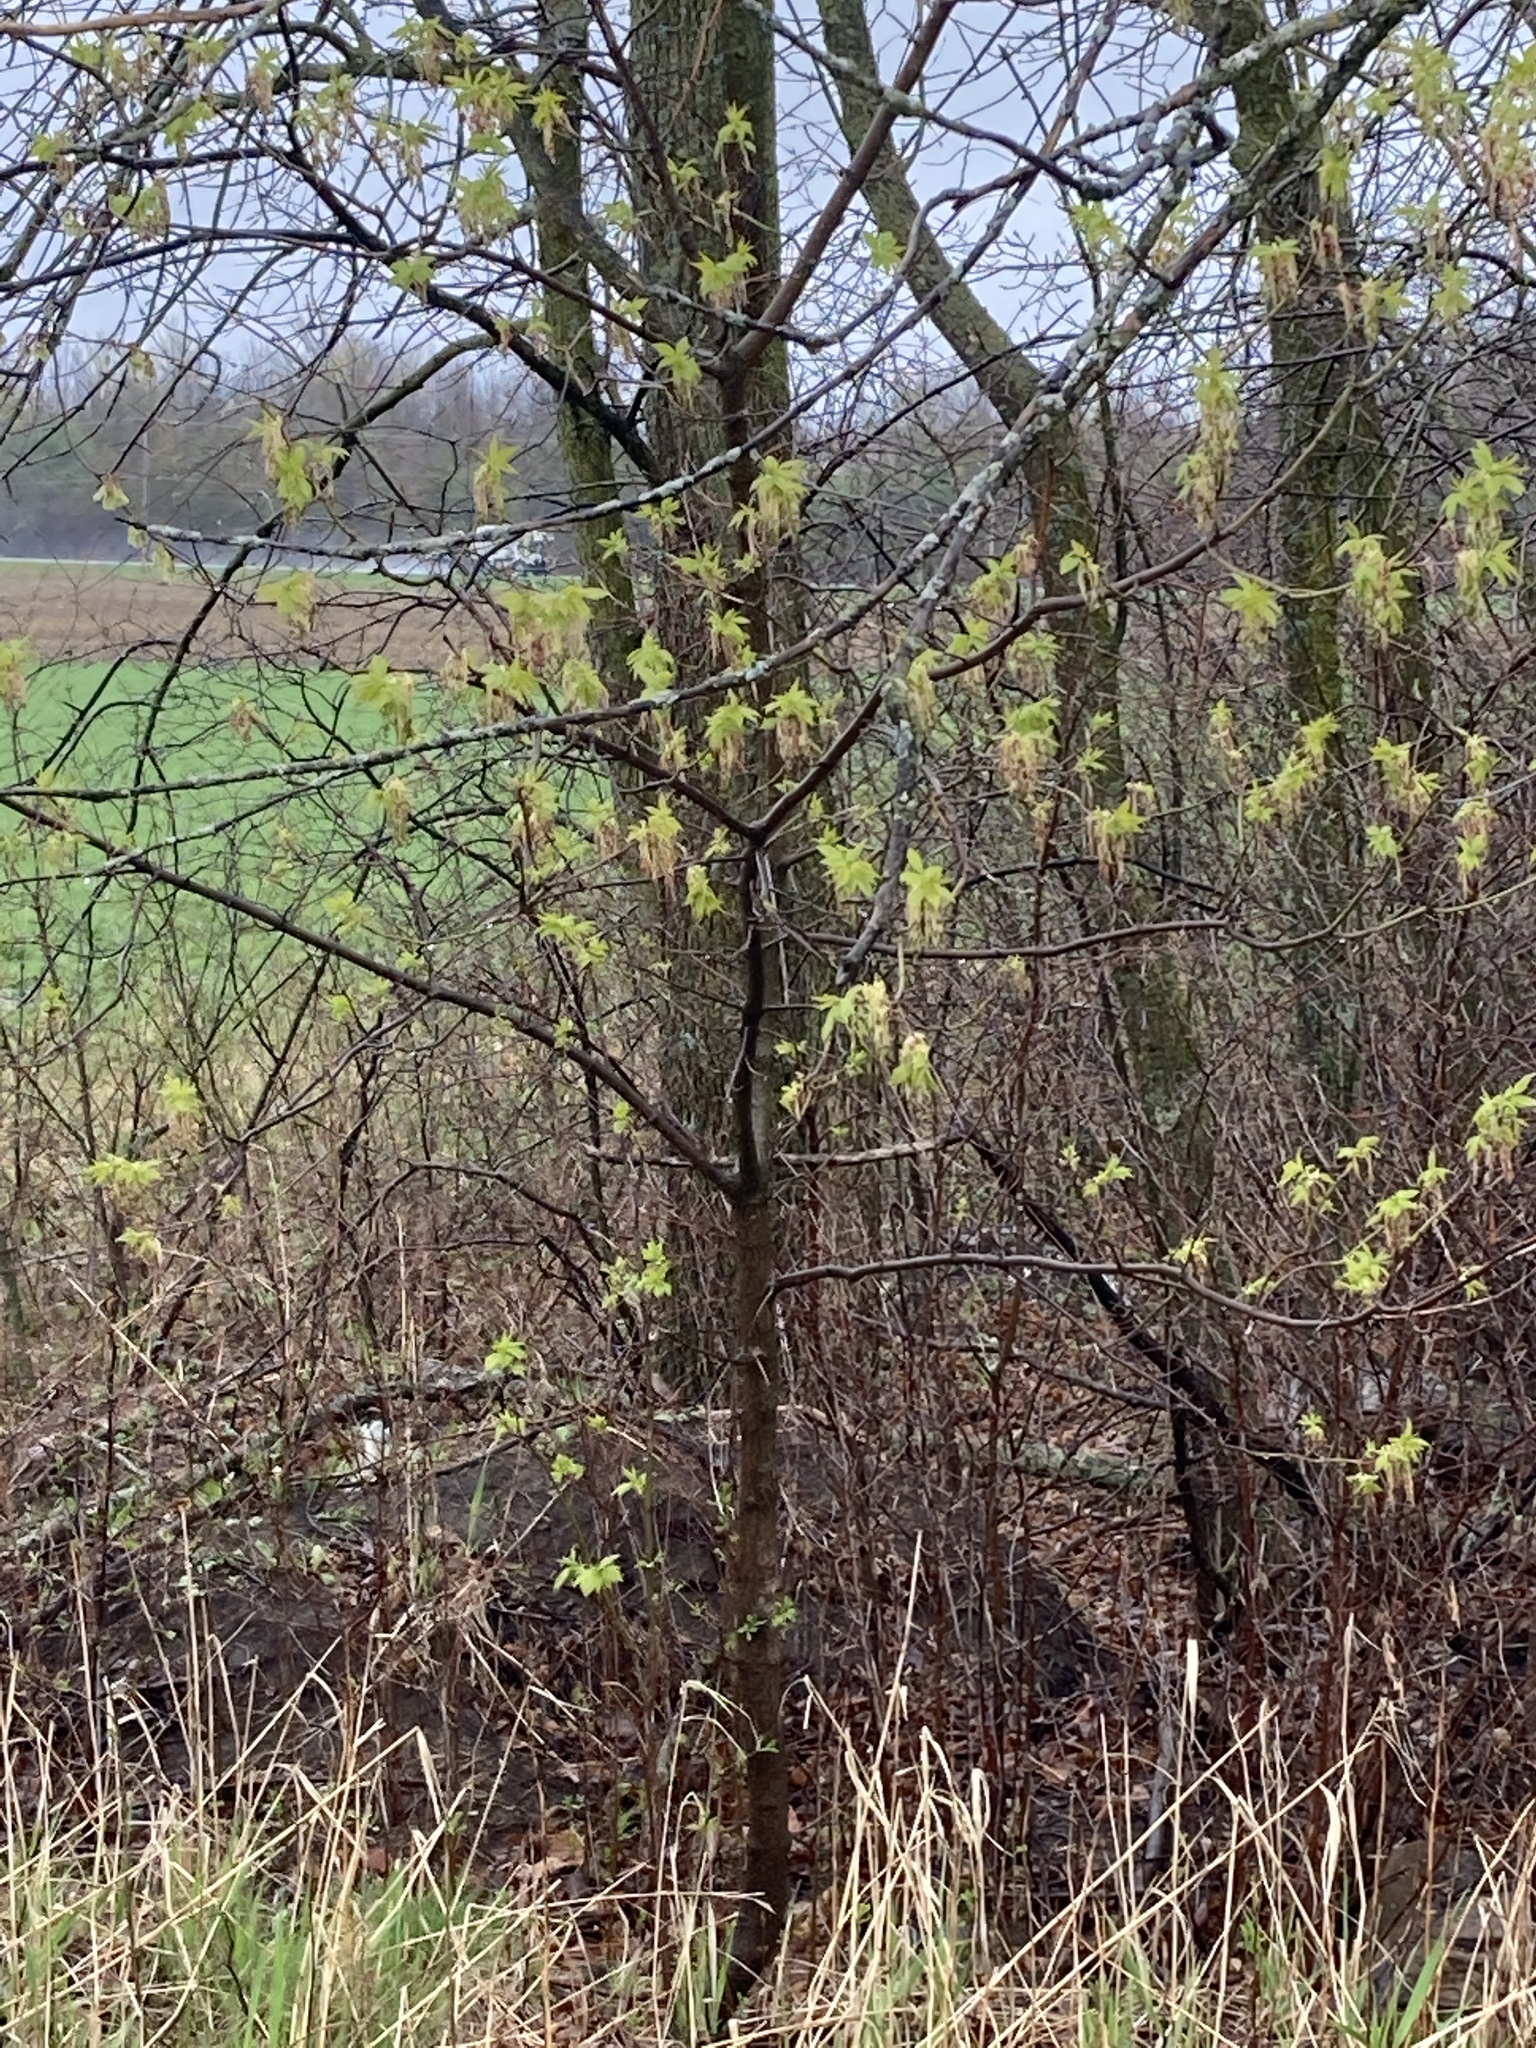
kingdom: Plantae
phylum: Tracheophyta
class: Magnoliopsida
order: Sapindales
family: Sapindaceae
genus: Acer
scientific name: Acer negundo
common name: Ashleaf maple
